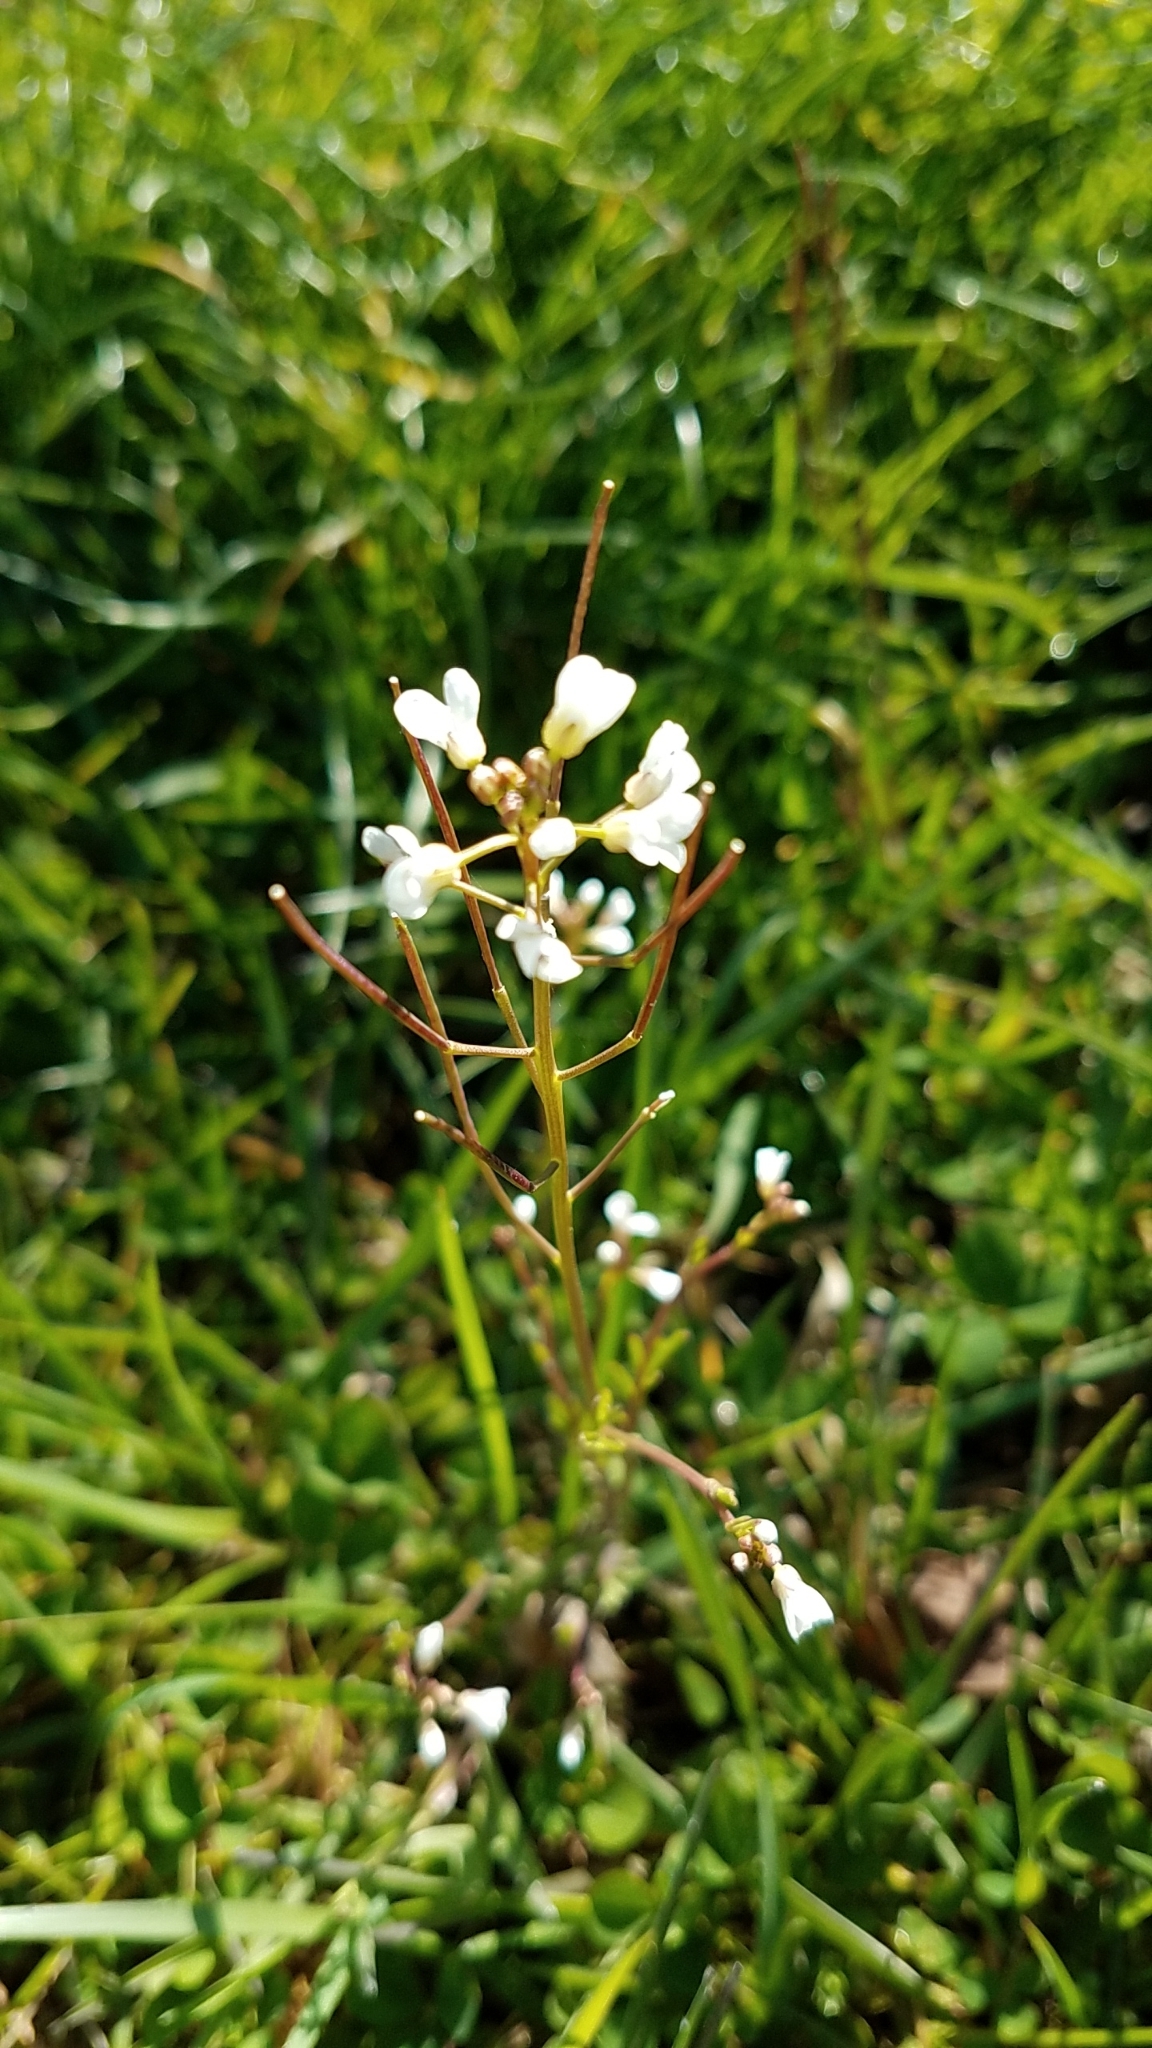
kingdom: Plantae
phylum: Tracheophyta
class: Magnoliopsida
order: Brassicales
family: Brassicaceae
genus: Cardamine
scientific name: Cardamine hirsuta
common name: Hairy bittercress
